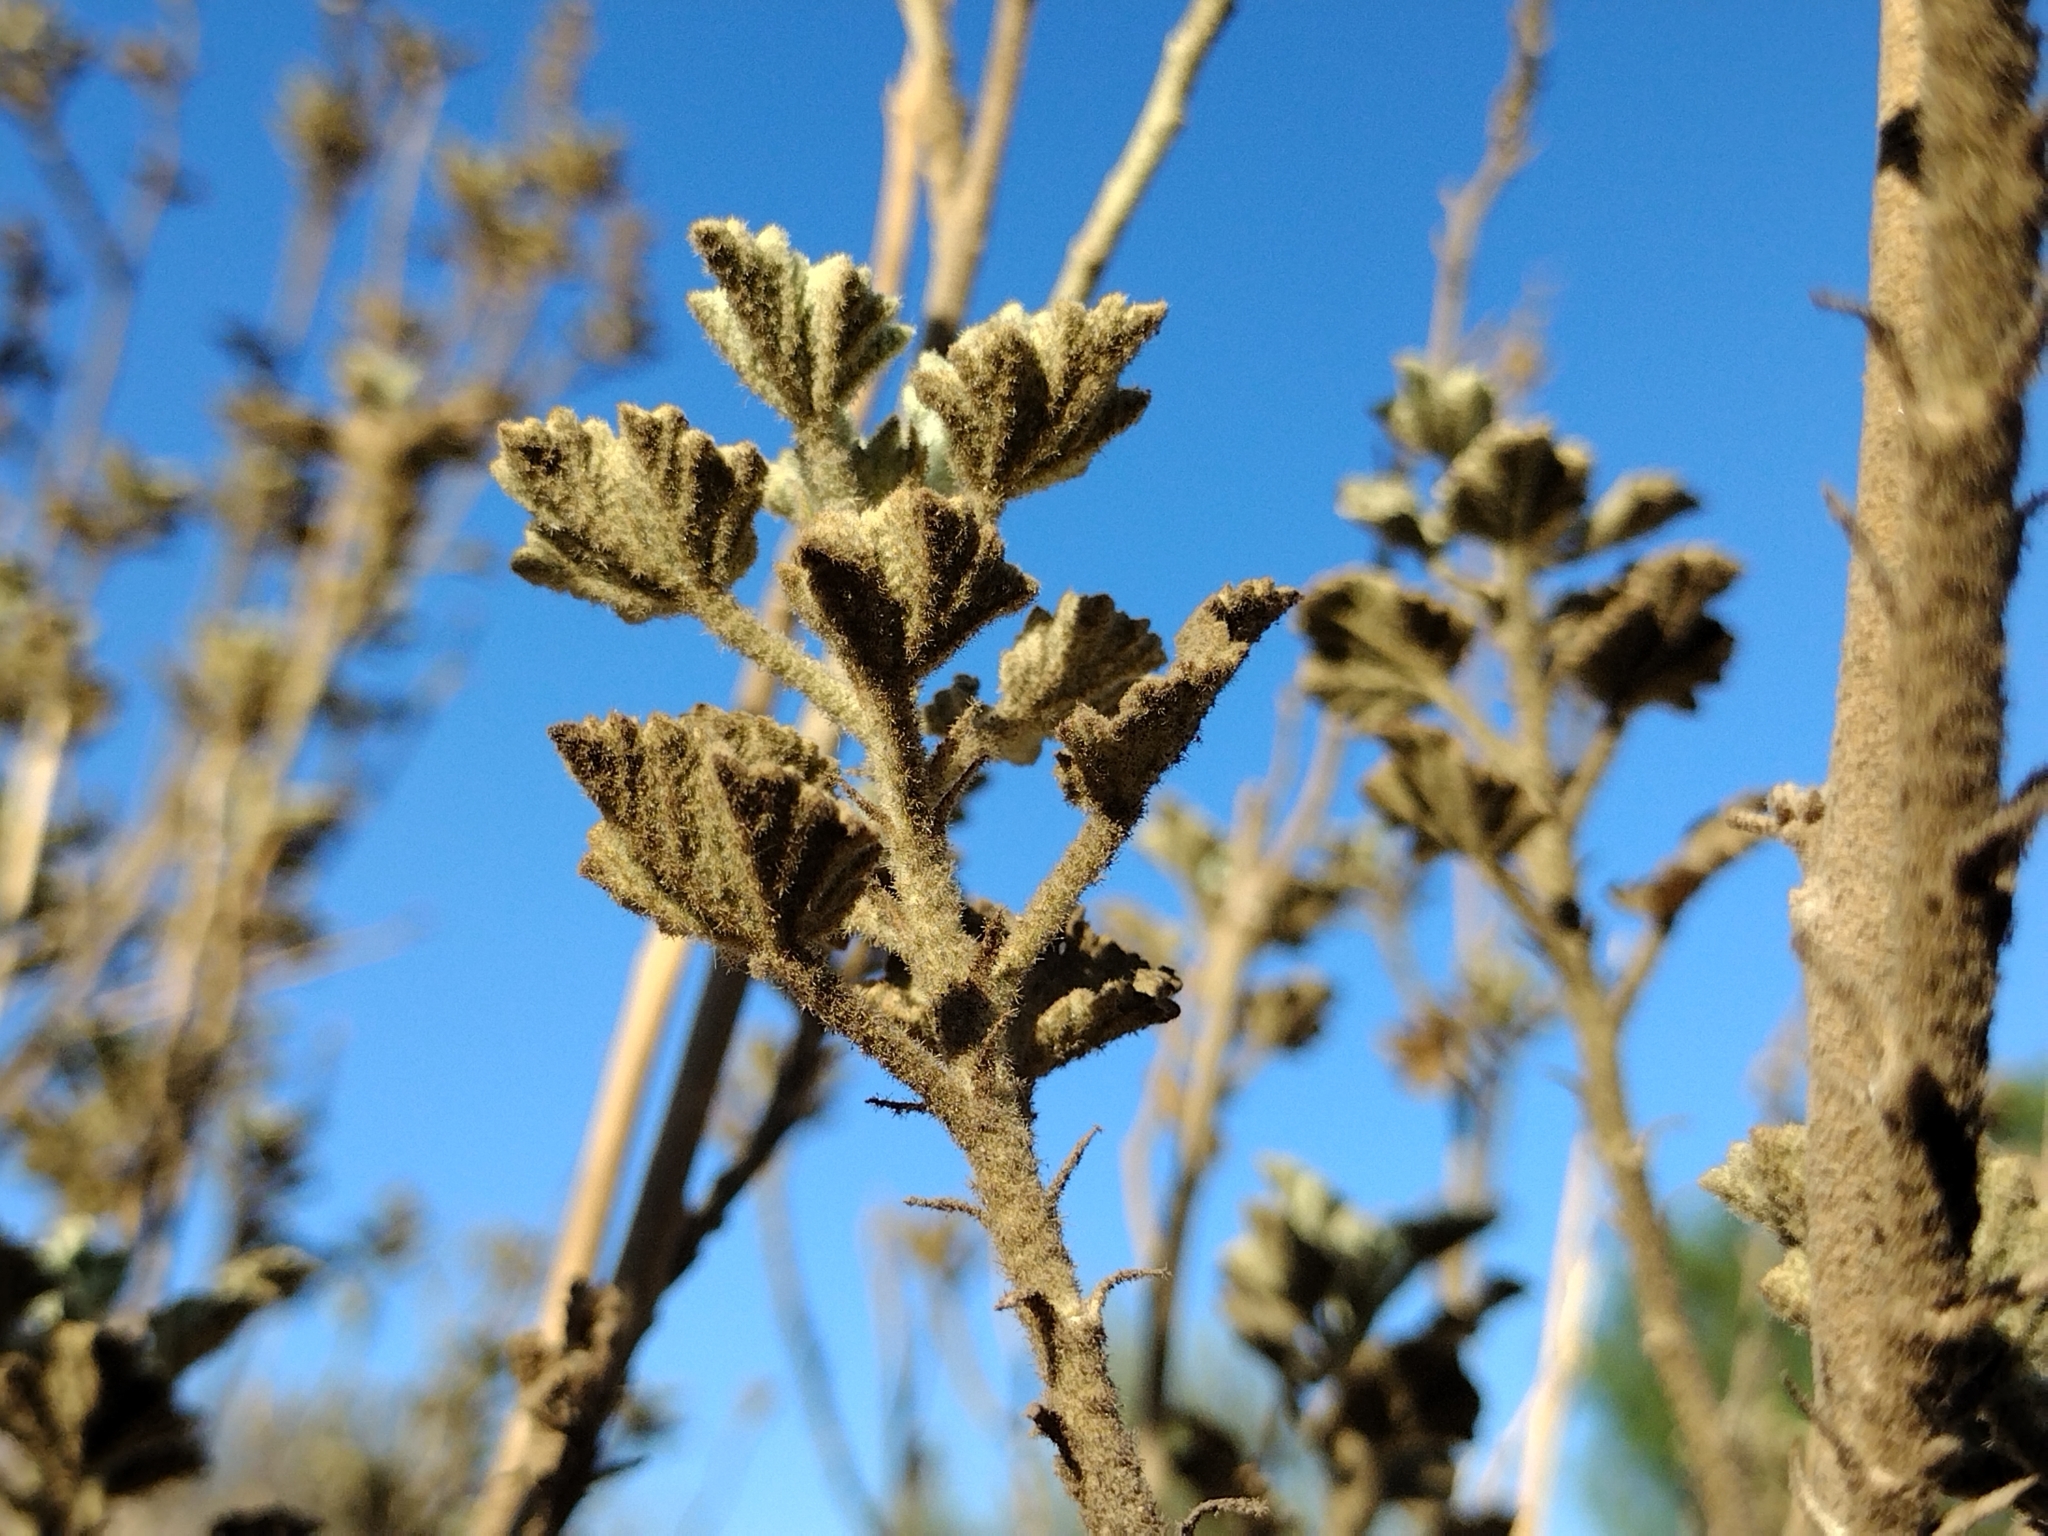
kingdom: Plantae
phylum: Tracheophyta
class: Magnoliopsida
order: Malvales
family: Malvaceae
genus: Malacothamnus
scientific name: Malacothamnus marrubioides
